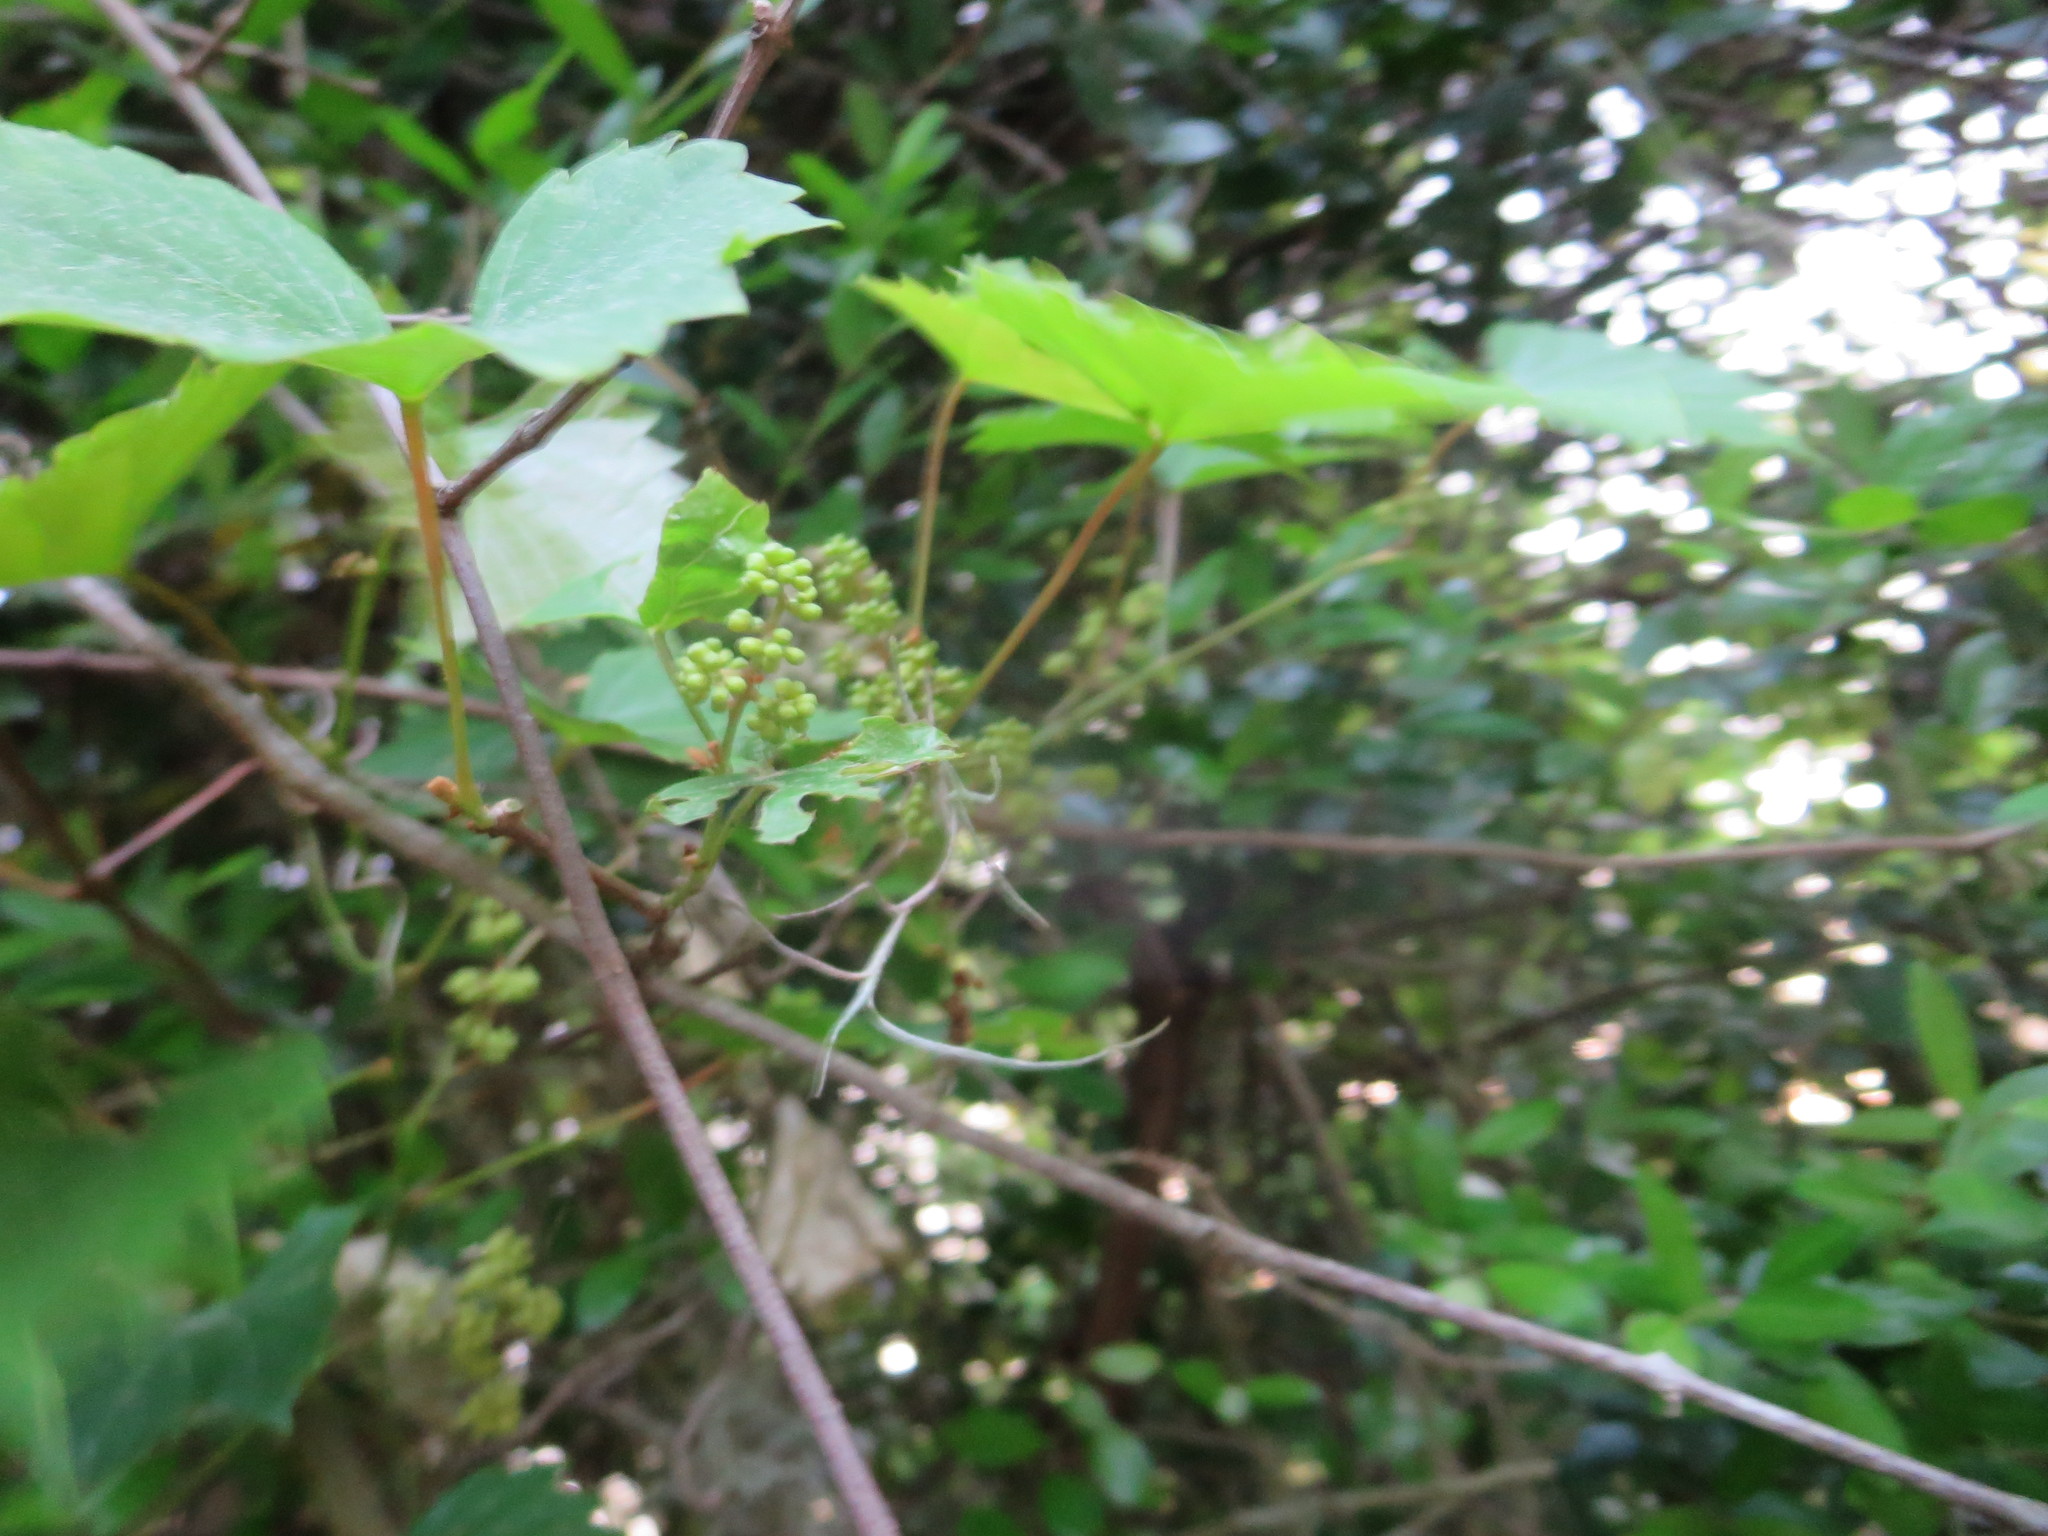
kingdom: Plantae
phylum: Tracheophyta
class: Magnoliopsida
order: Vitales
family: Vitaceae
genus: Vitis
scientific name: Vitis rotundifolia
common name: Muscadine grape
